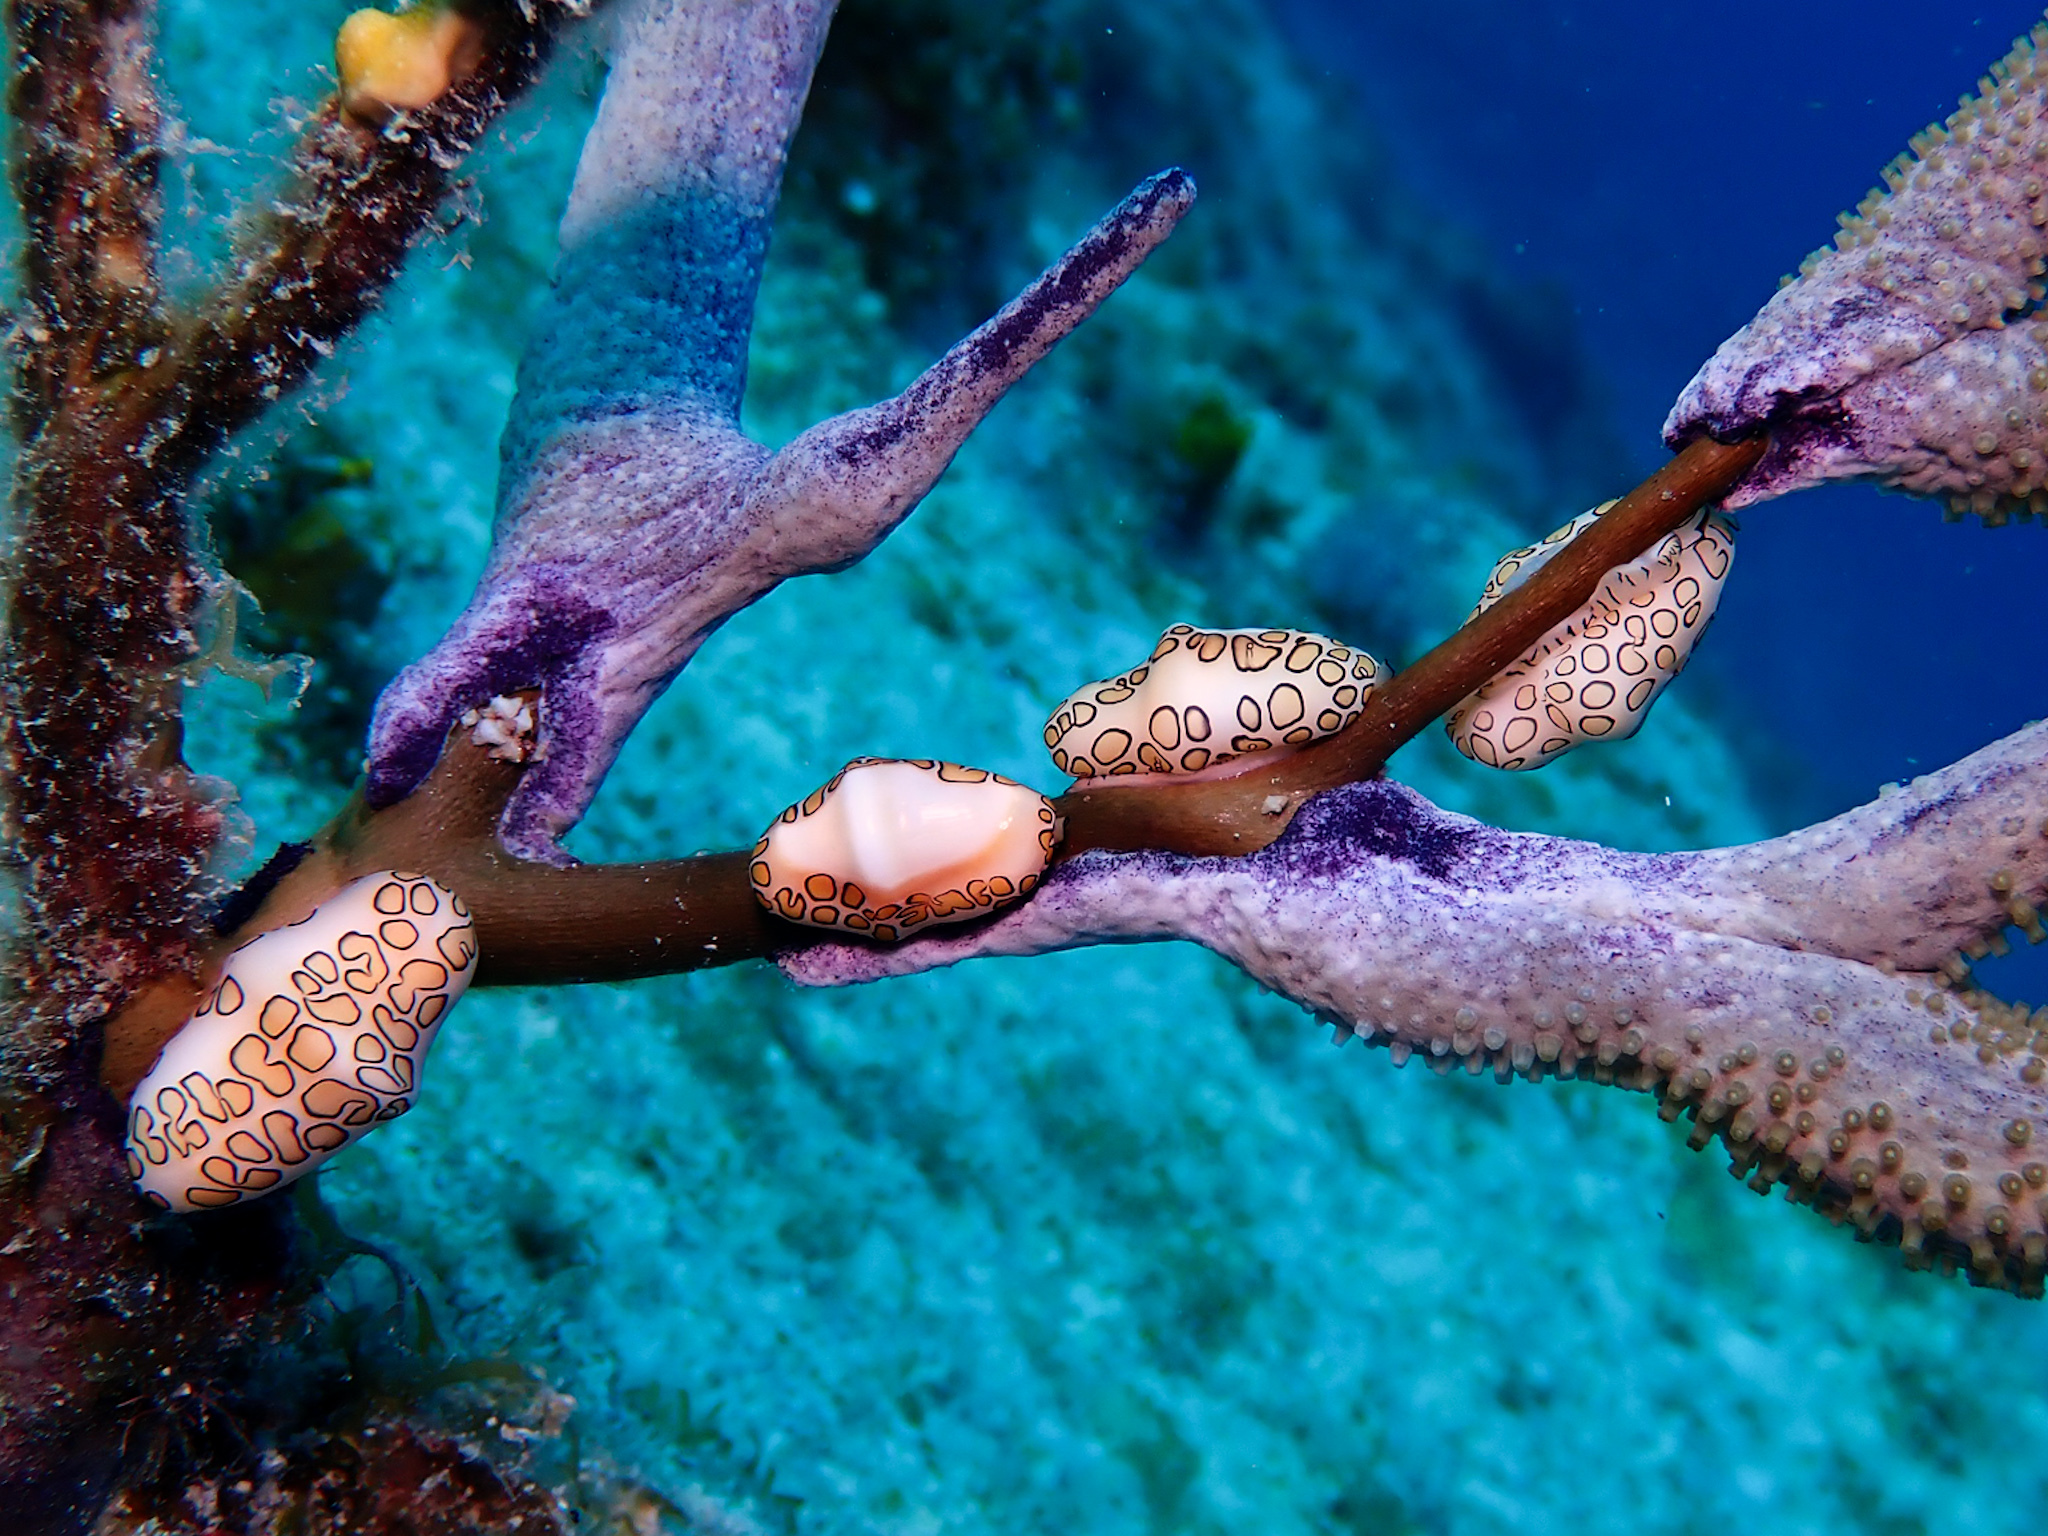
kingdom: Animalia
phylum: Mollusca
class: Gastropoda
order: Littorinimorpha
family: Ovulidae
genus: Cyphoma
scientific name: Cyphoma gibbosum
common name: Flamingo tongue
